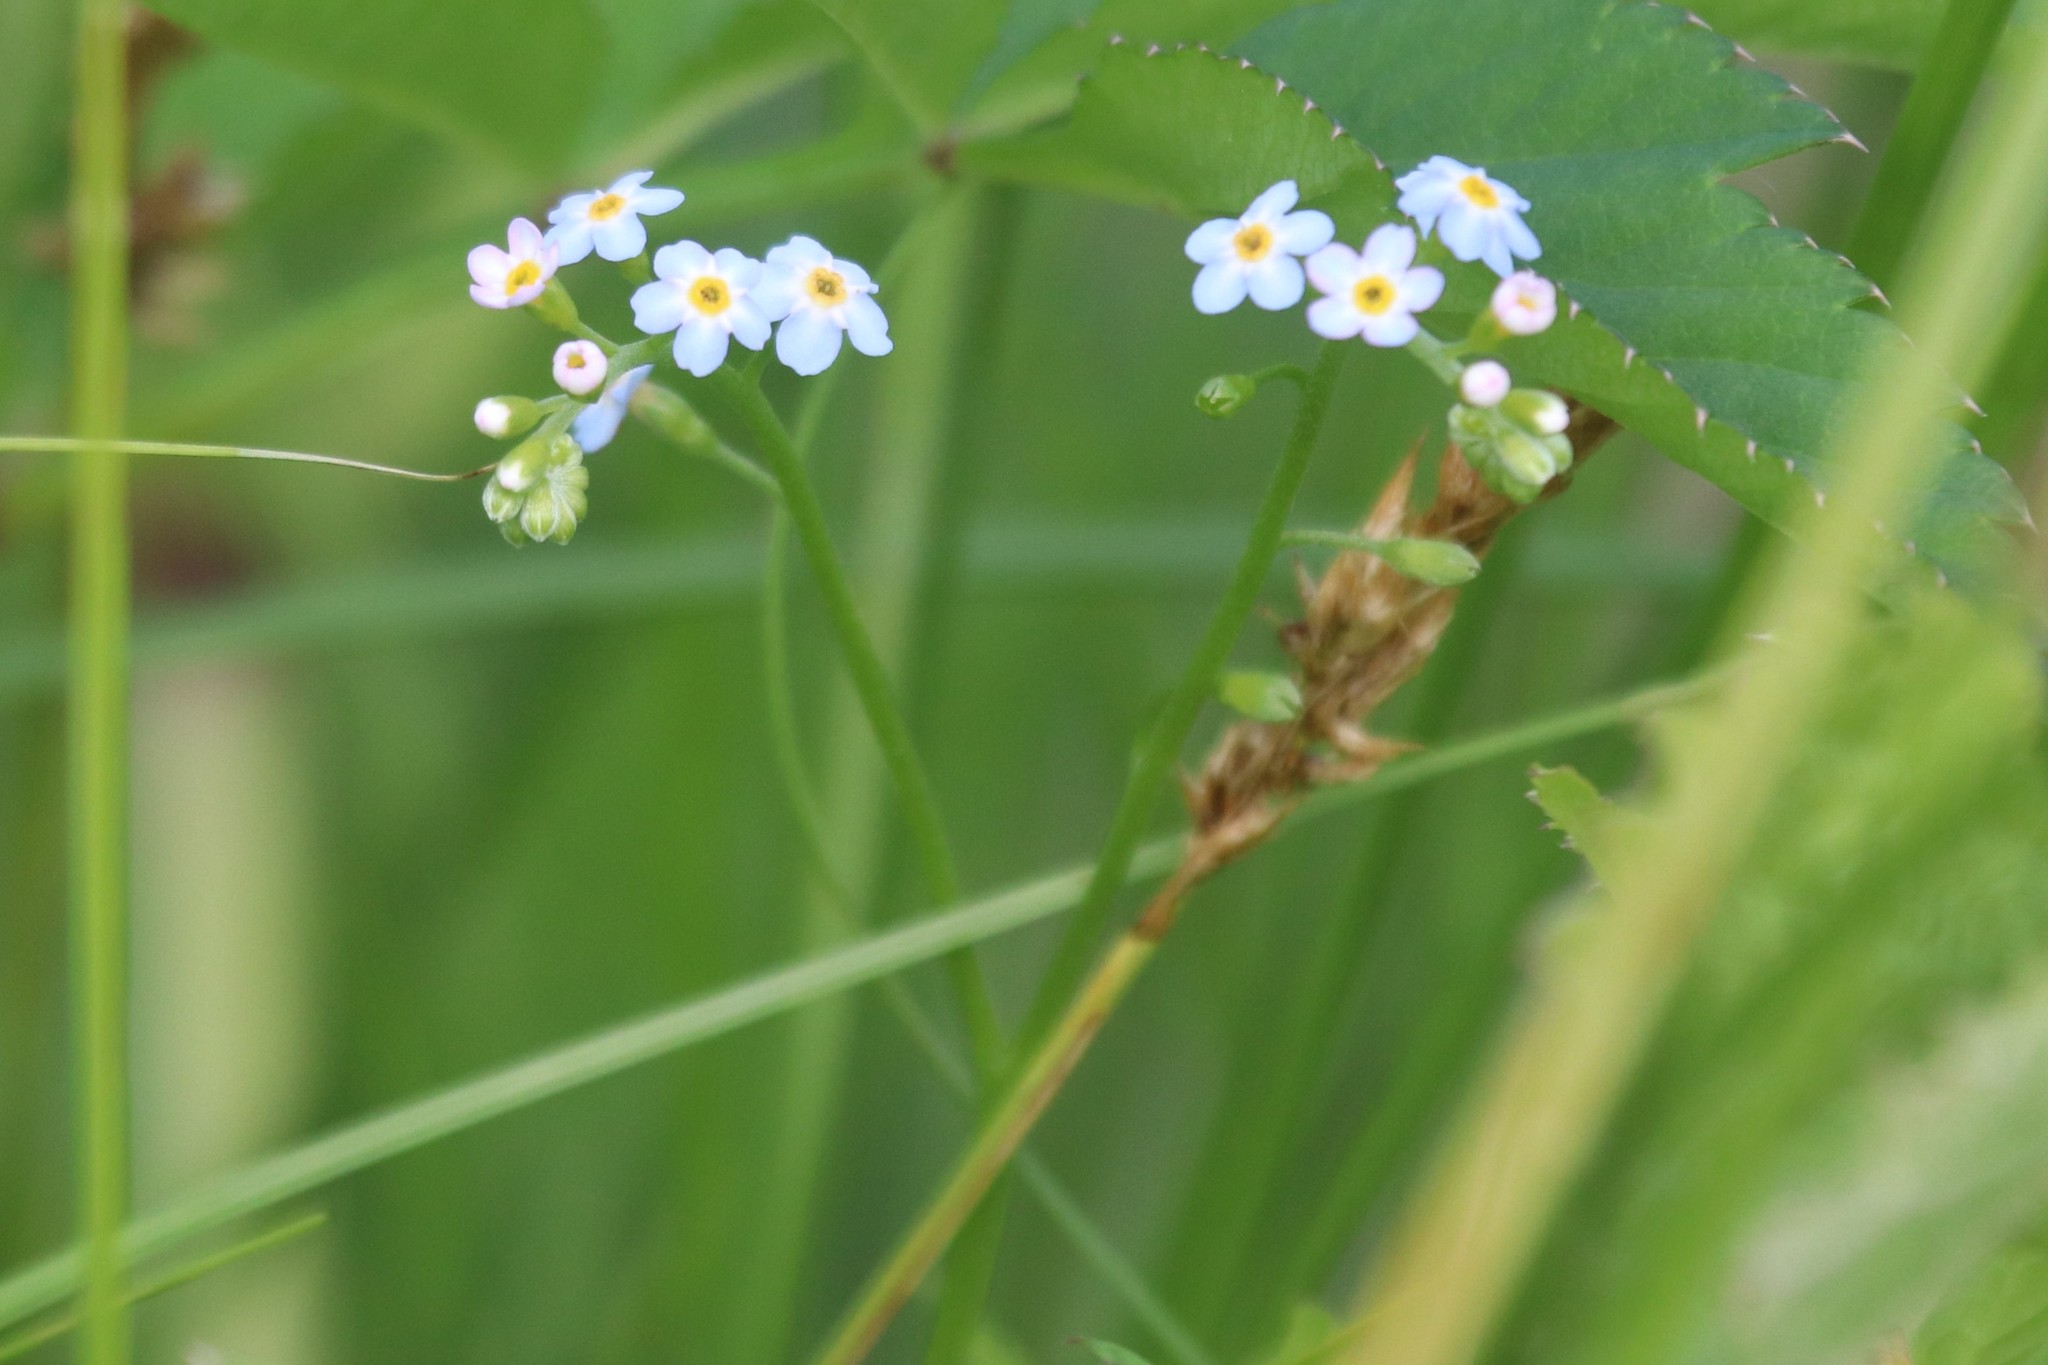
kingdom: Plantae
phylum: Tracheophyta
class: Magnoliopsida
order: Boraginales
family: Boraginaceae
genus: Myosotis
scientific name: Myosotis scorpioides
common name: Water forget-me-not
